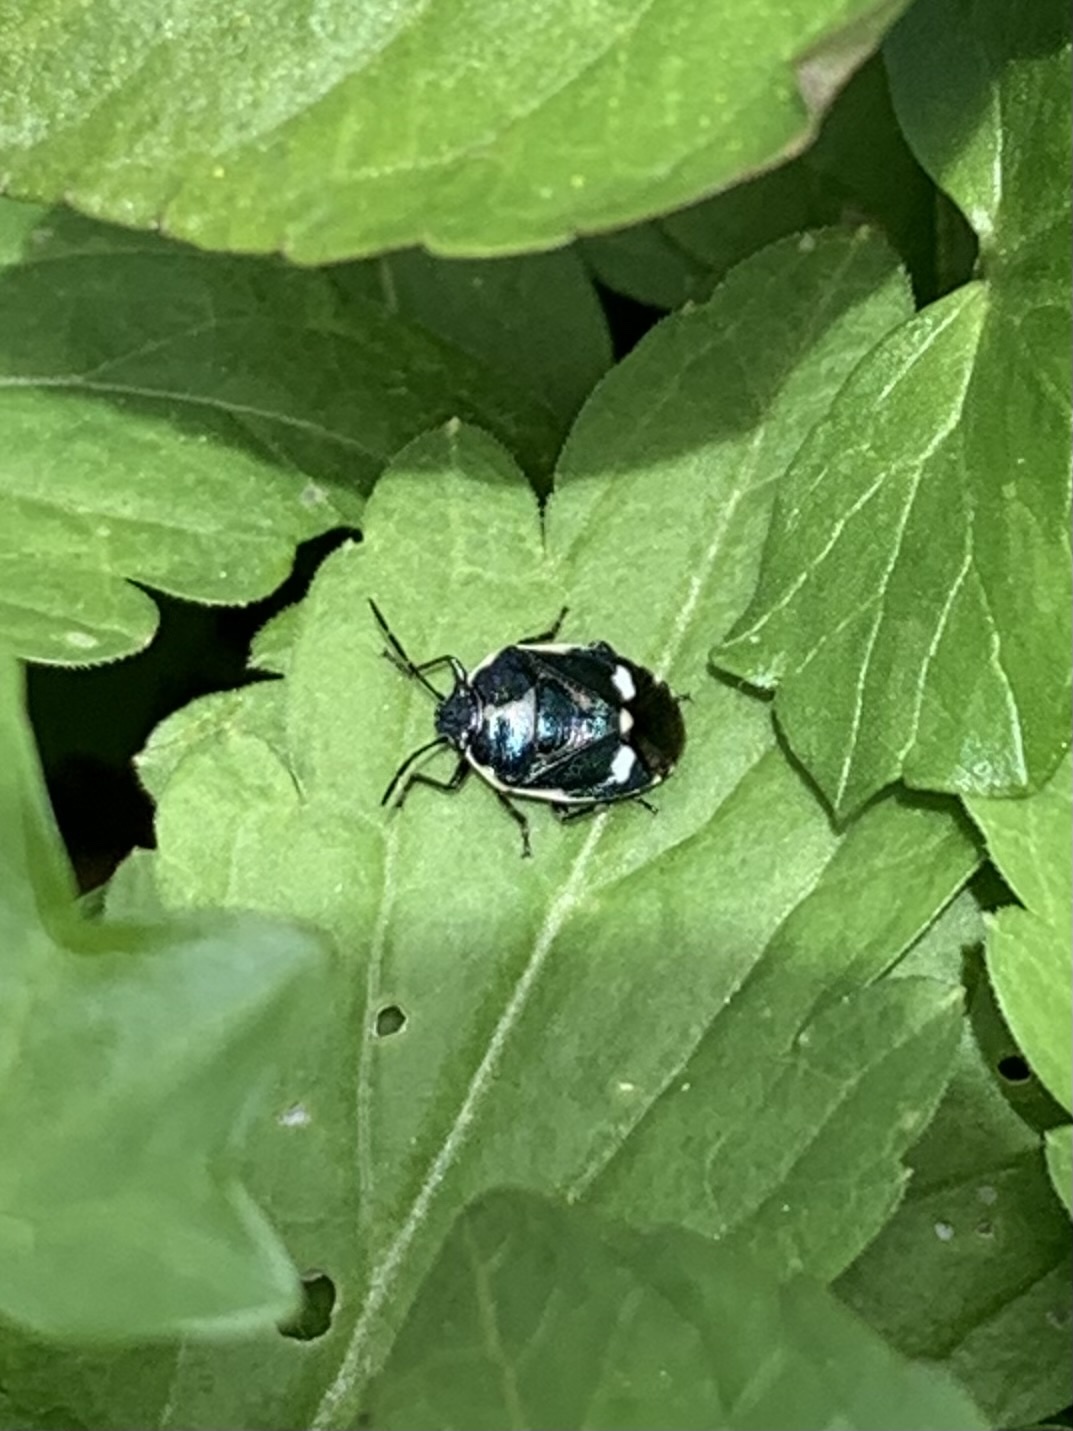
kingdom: Animalia
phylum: Arthropoda
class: Insecta
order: Hemiptera
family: Pentatomidae
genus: Eurydema
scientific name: Eurydema oleracea
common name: Cabbage bug
